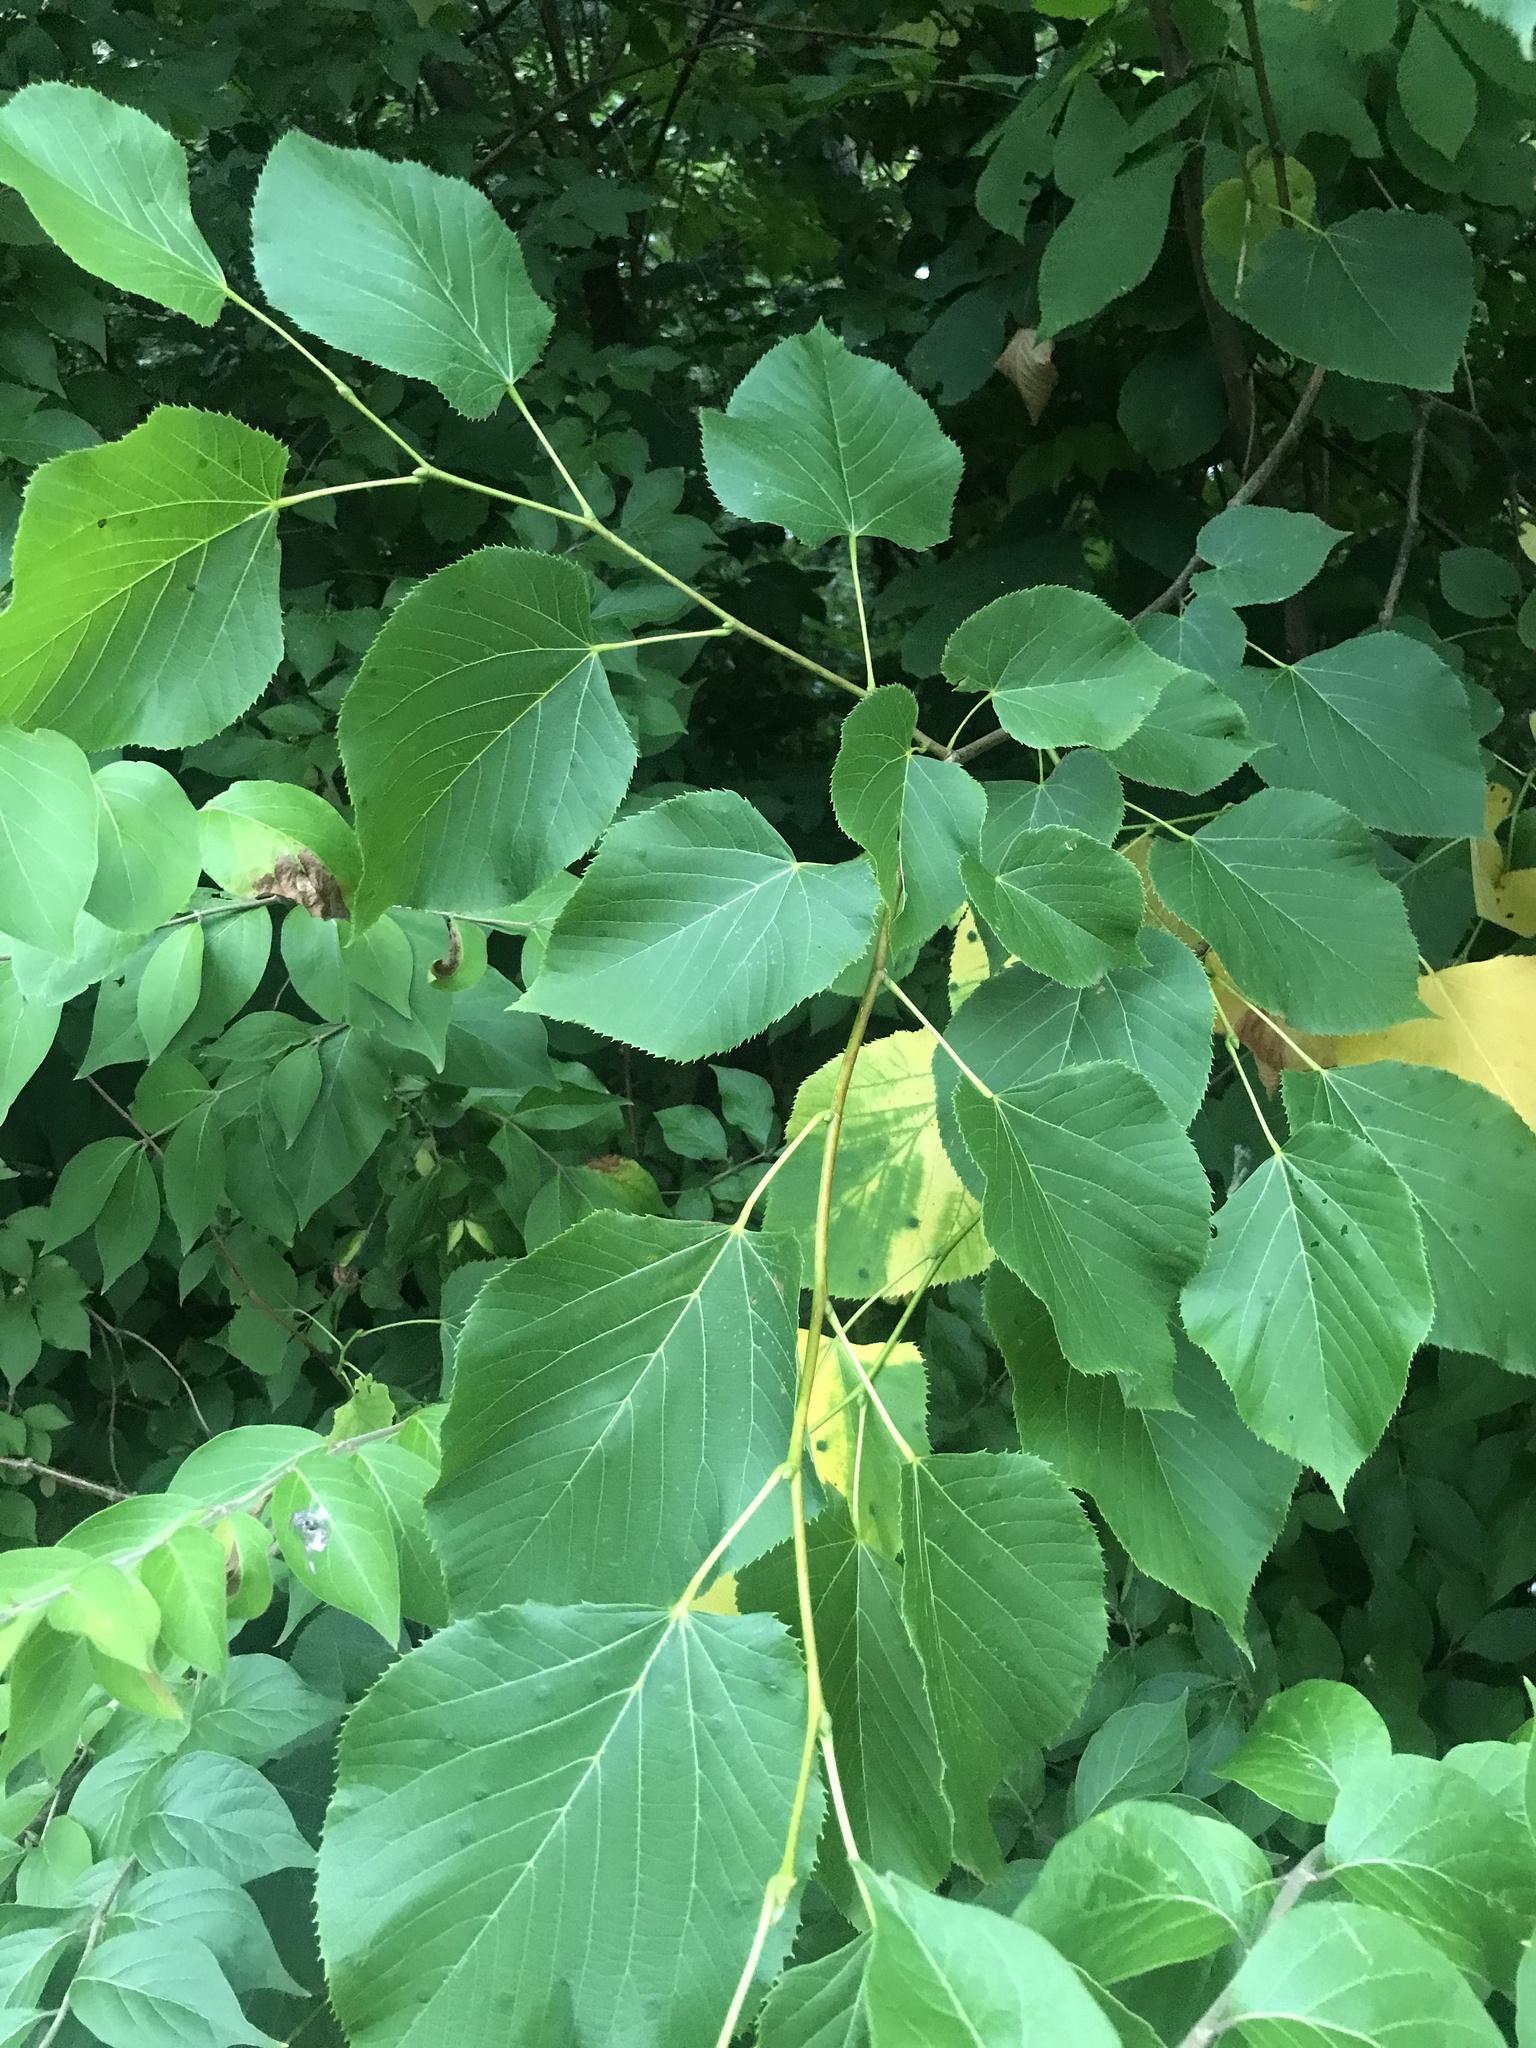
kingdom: Plantae
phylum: Tracheophyta
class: Magnoliopsida
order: Malvales
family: Malvaceae
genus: Tilia
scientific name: Tilia americana
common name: Basswood
